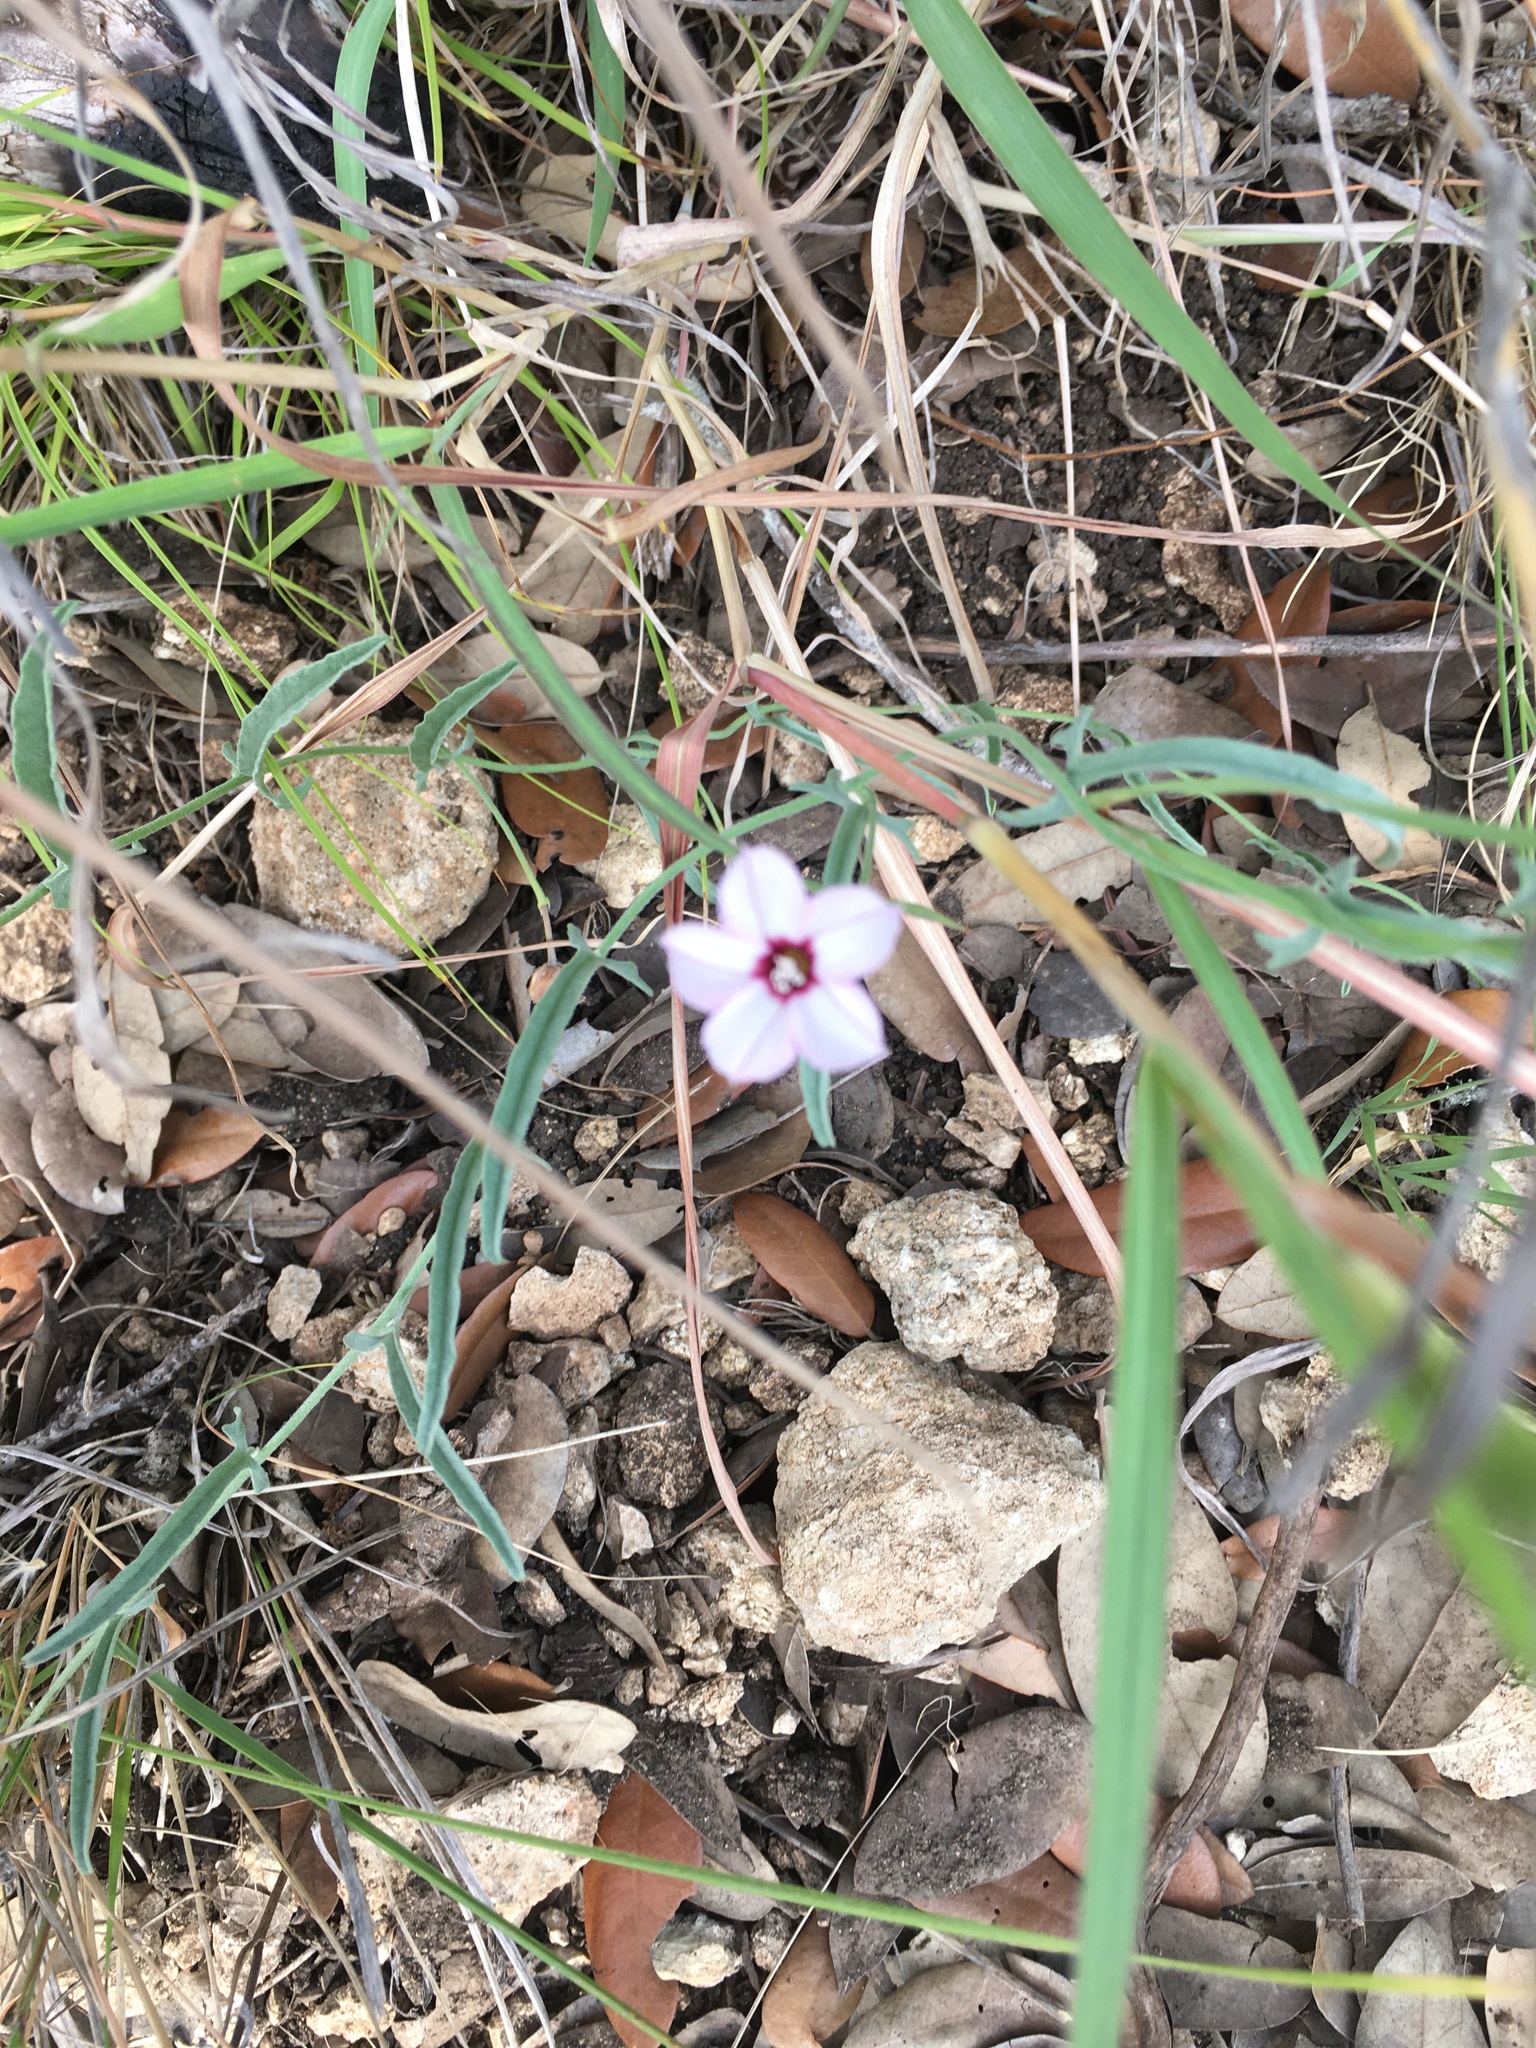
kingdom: Plantae
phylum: Tracheophyta
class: Magnoliopsida
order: Solanales
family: Convolvulaceae
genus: Convolvulus
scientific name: Convolvulus equitans
